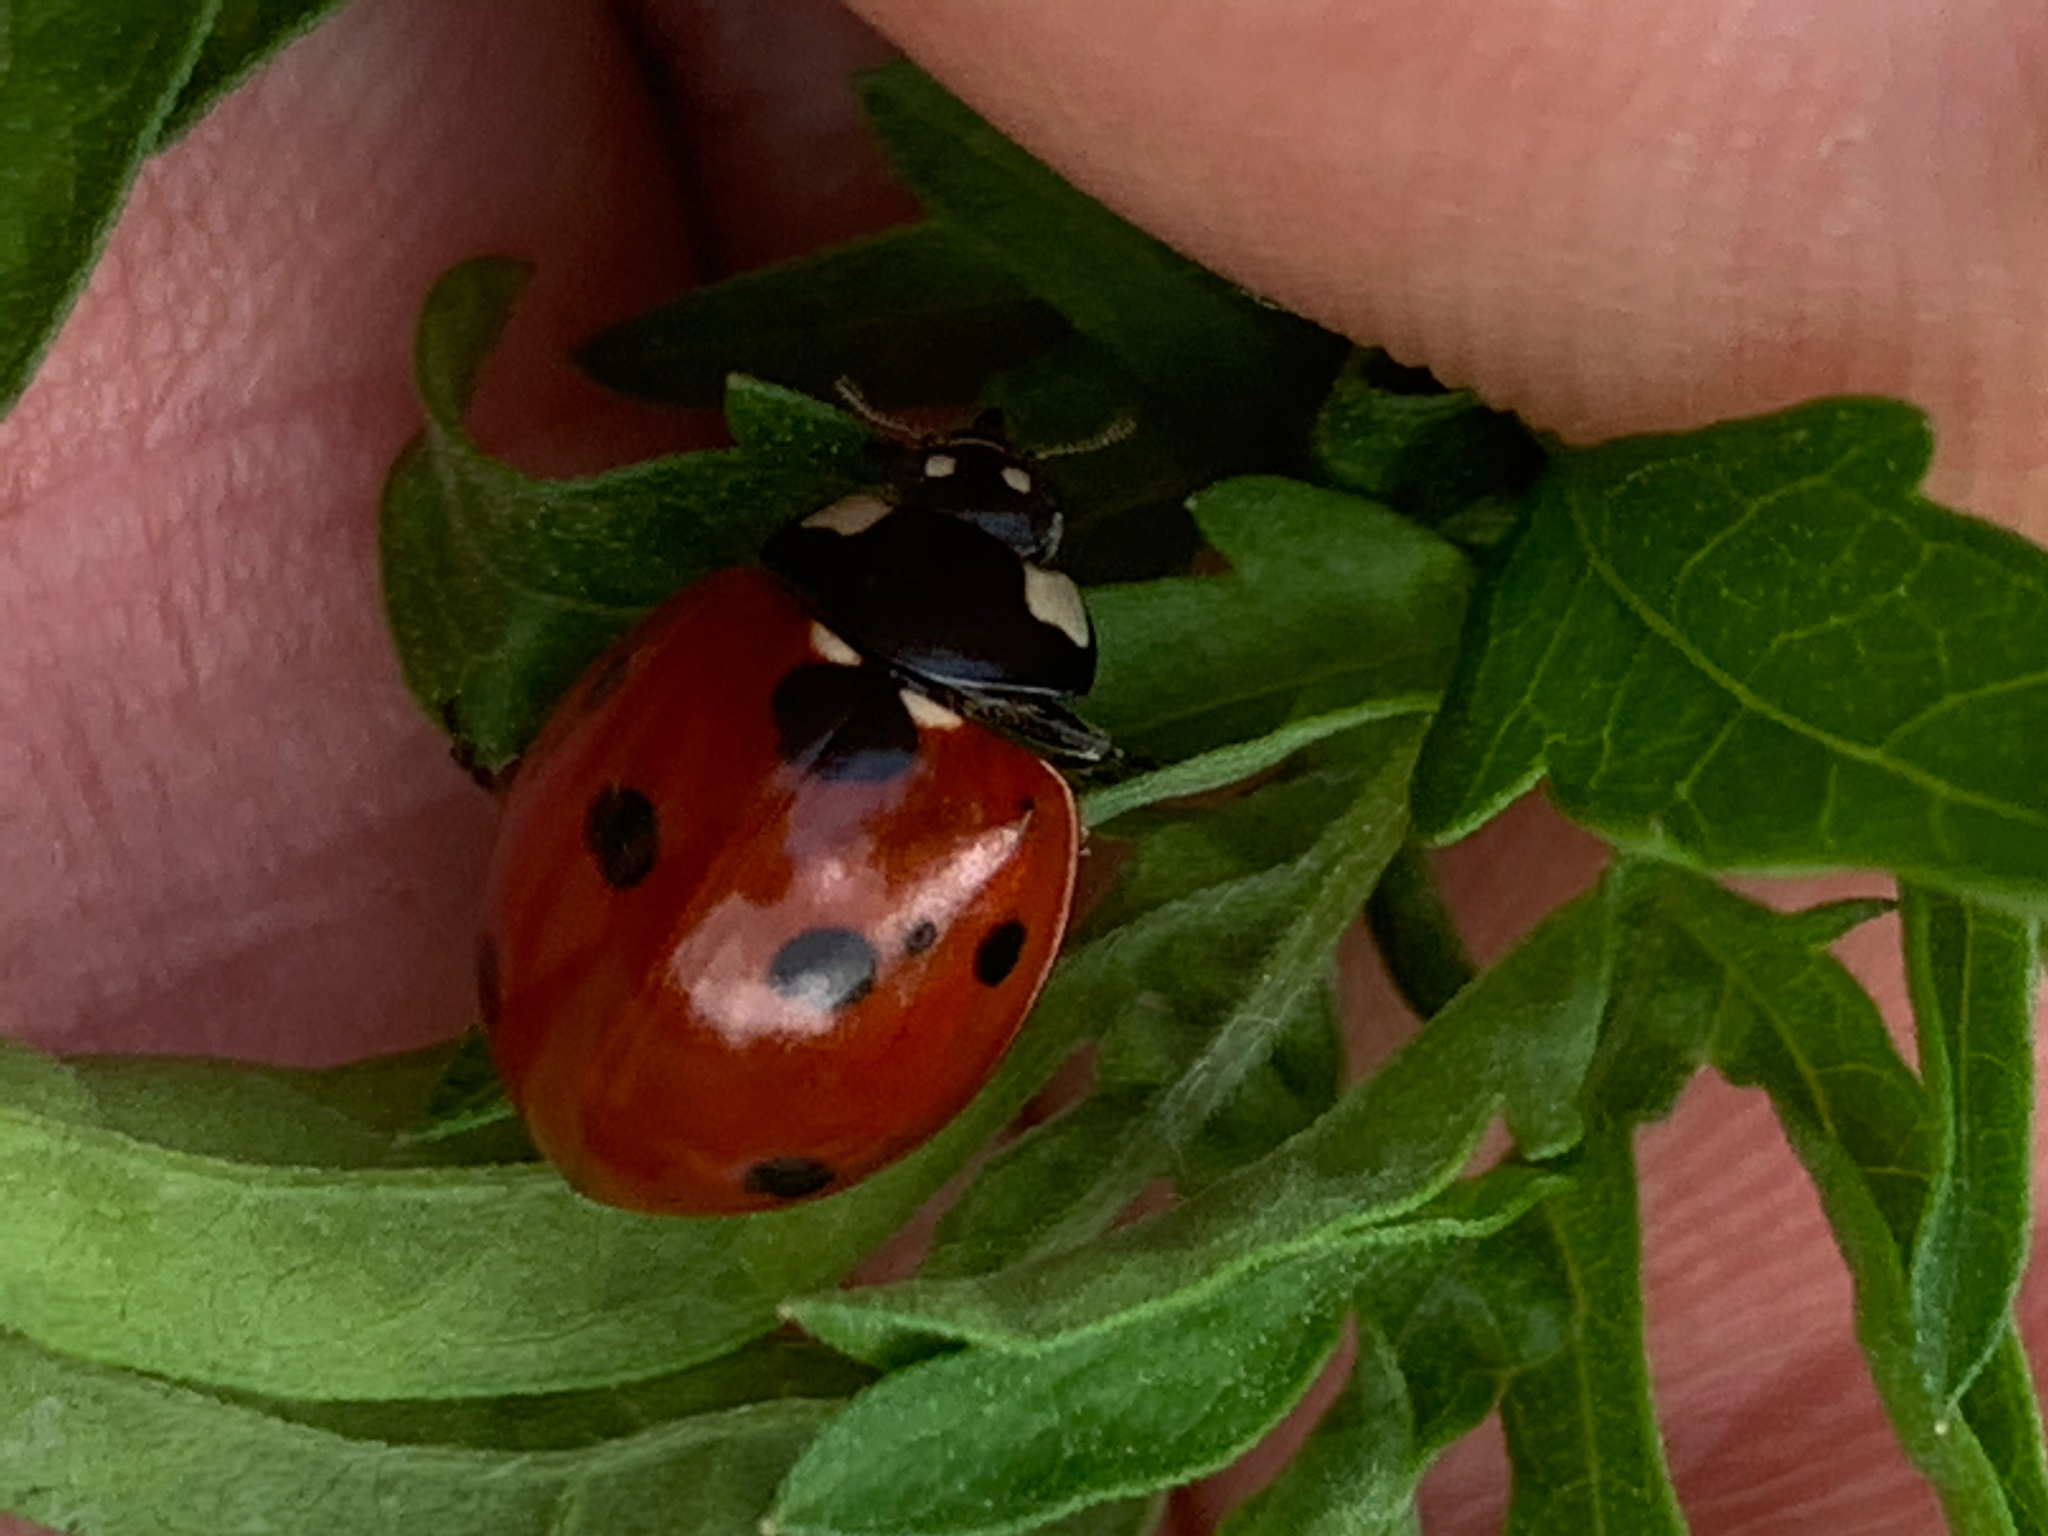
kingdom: Animalia
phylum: Arthropoda
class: Insecta
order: Coleoptera
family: Coccinellidae
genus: Coccinella
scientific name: Coccinella septempunctata
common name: Sevenspotted lady beetle
